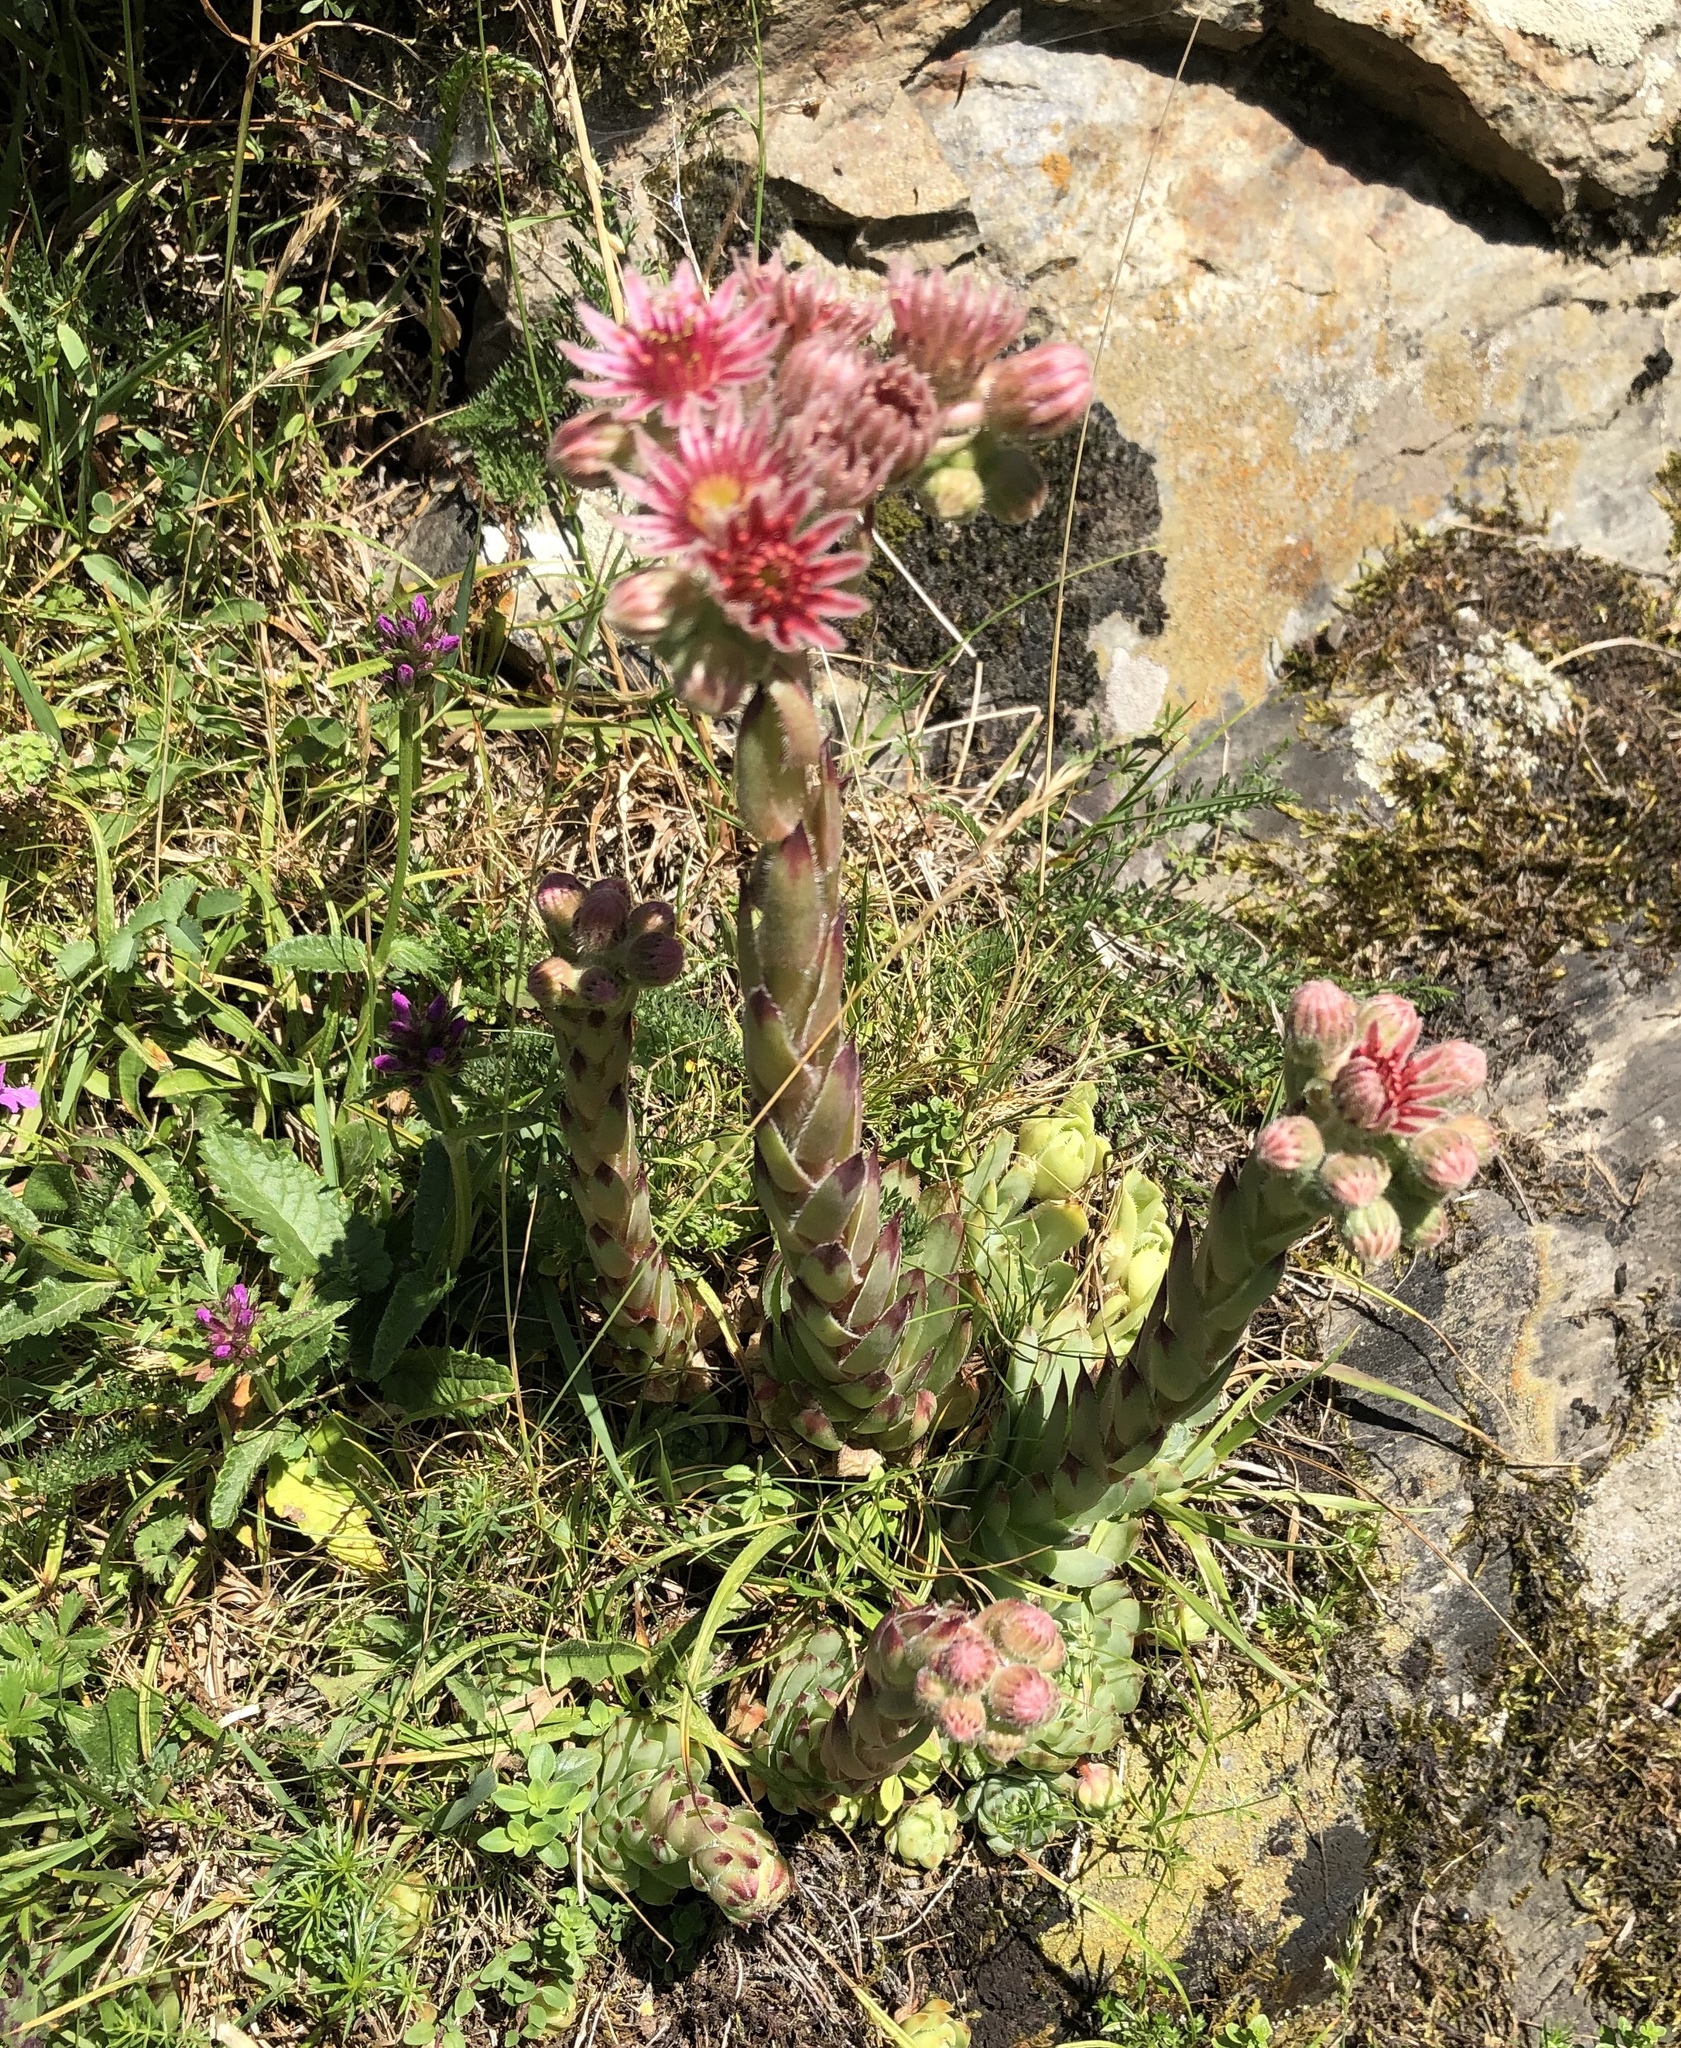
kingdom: Plantae
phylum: Tracheophyta
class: Magnoliopsida
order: Saxifragales
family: Crassulaceae
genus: Sempervivum
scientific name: Sempervivum tectorum
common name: House-leek
